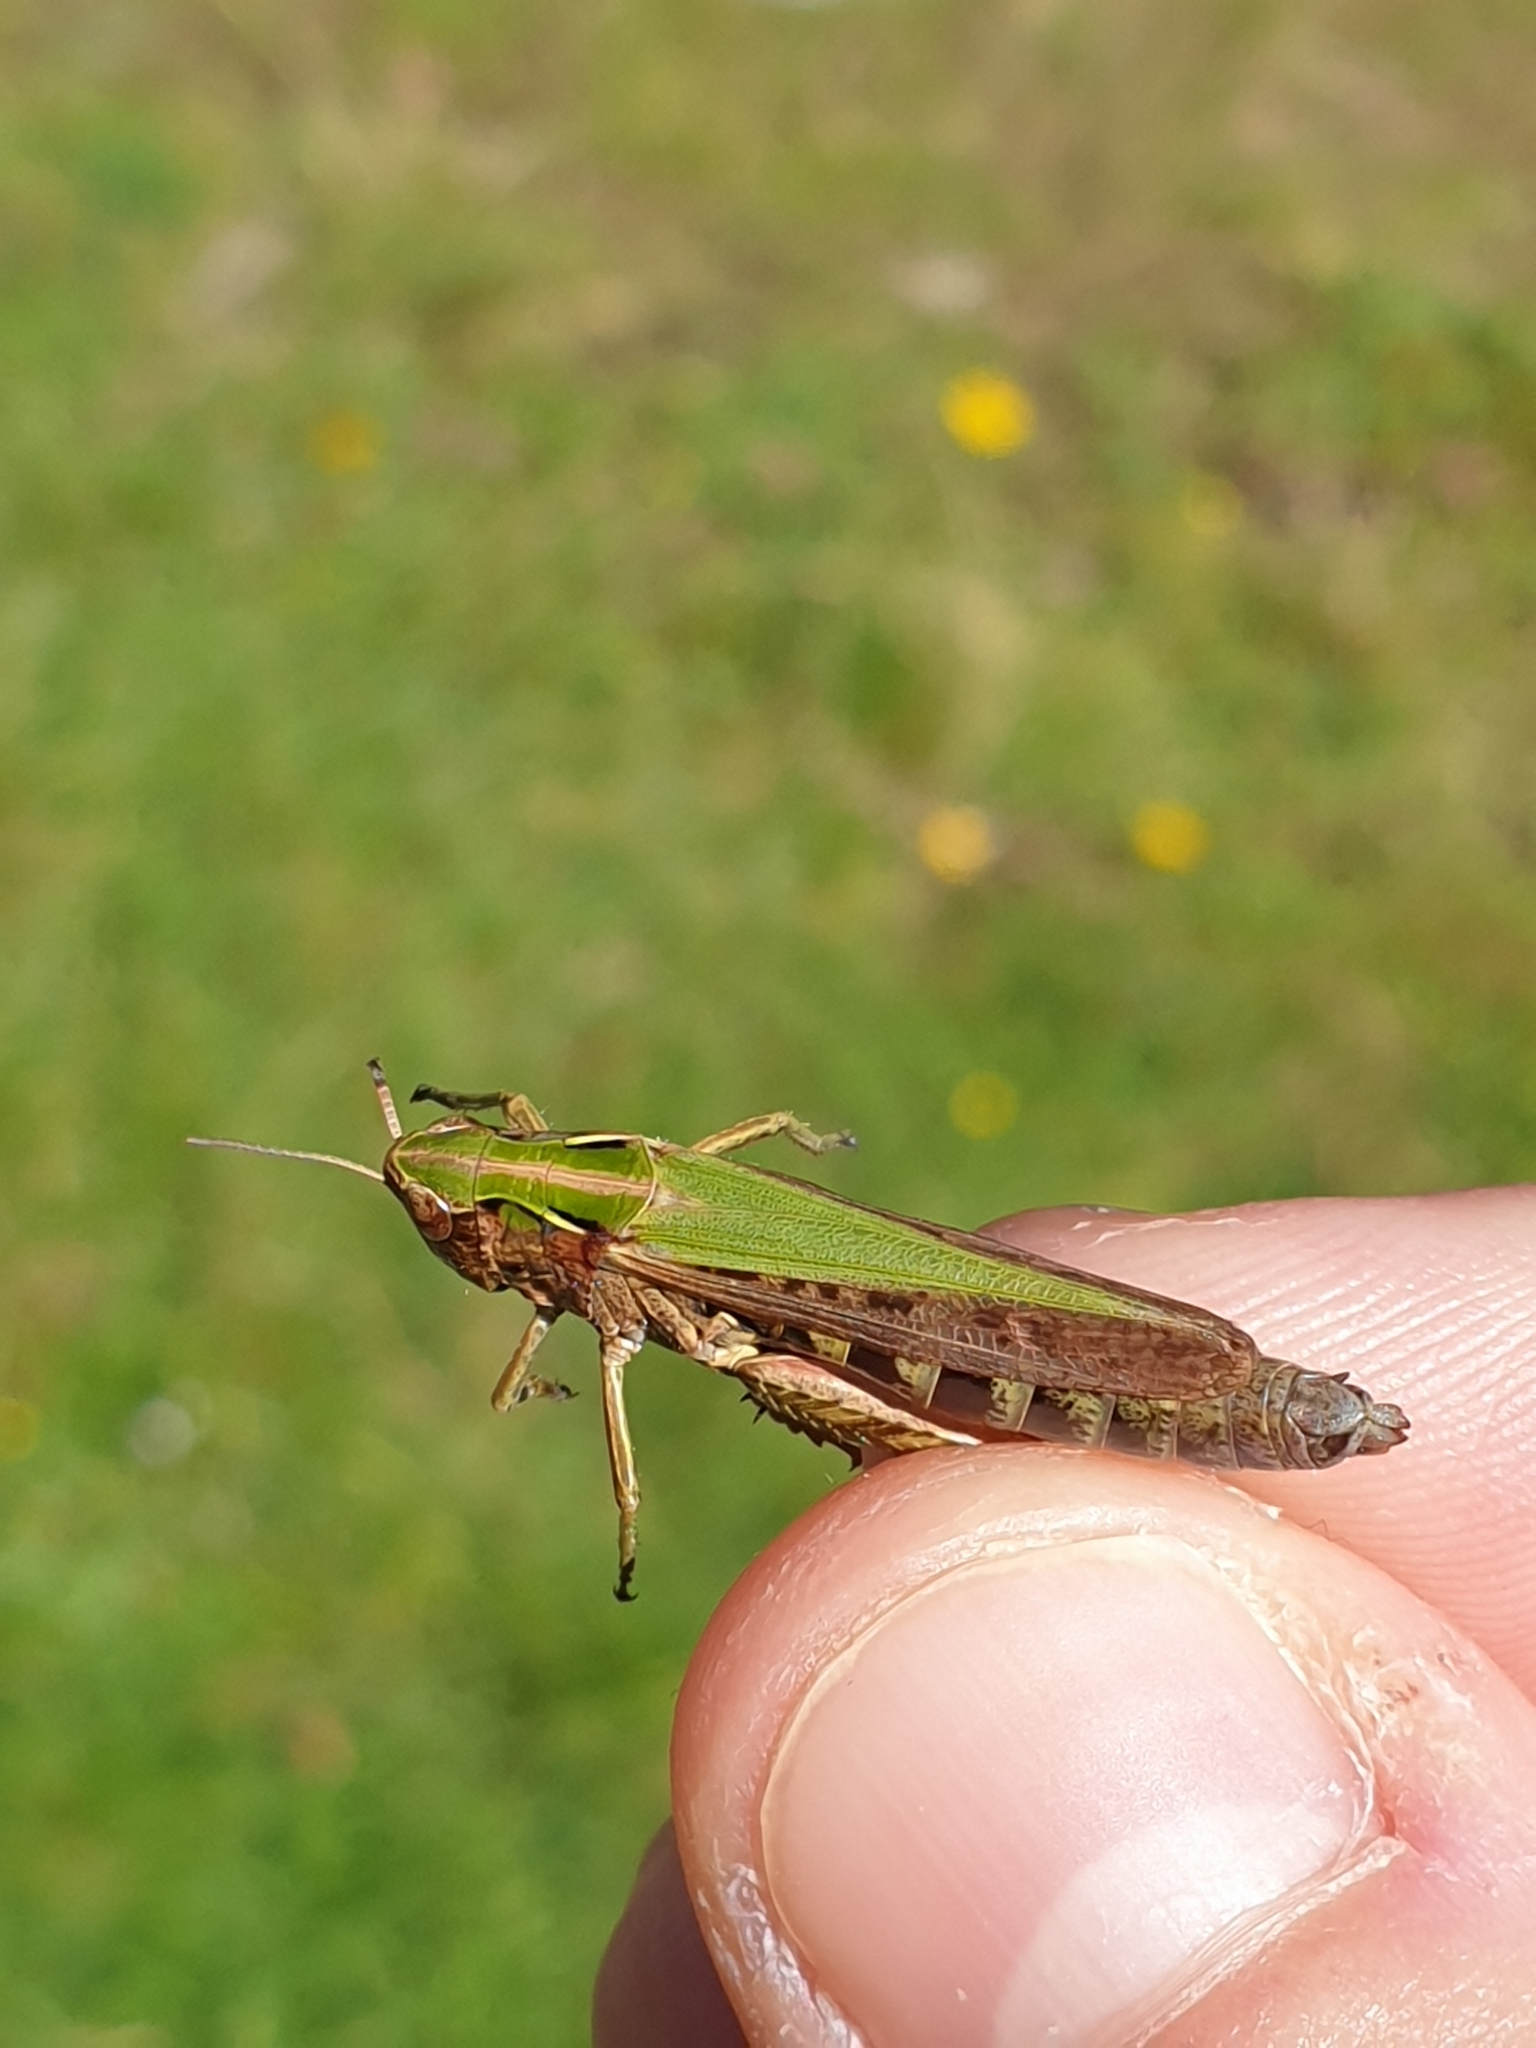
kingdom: Animalia
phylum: Arthropoda
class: Insecta
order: Orthoptera
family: Acrididae
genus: Omocestus
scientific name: Omocestus viridulus
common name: Common green grasshopper
